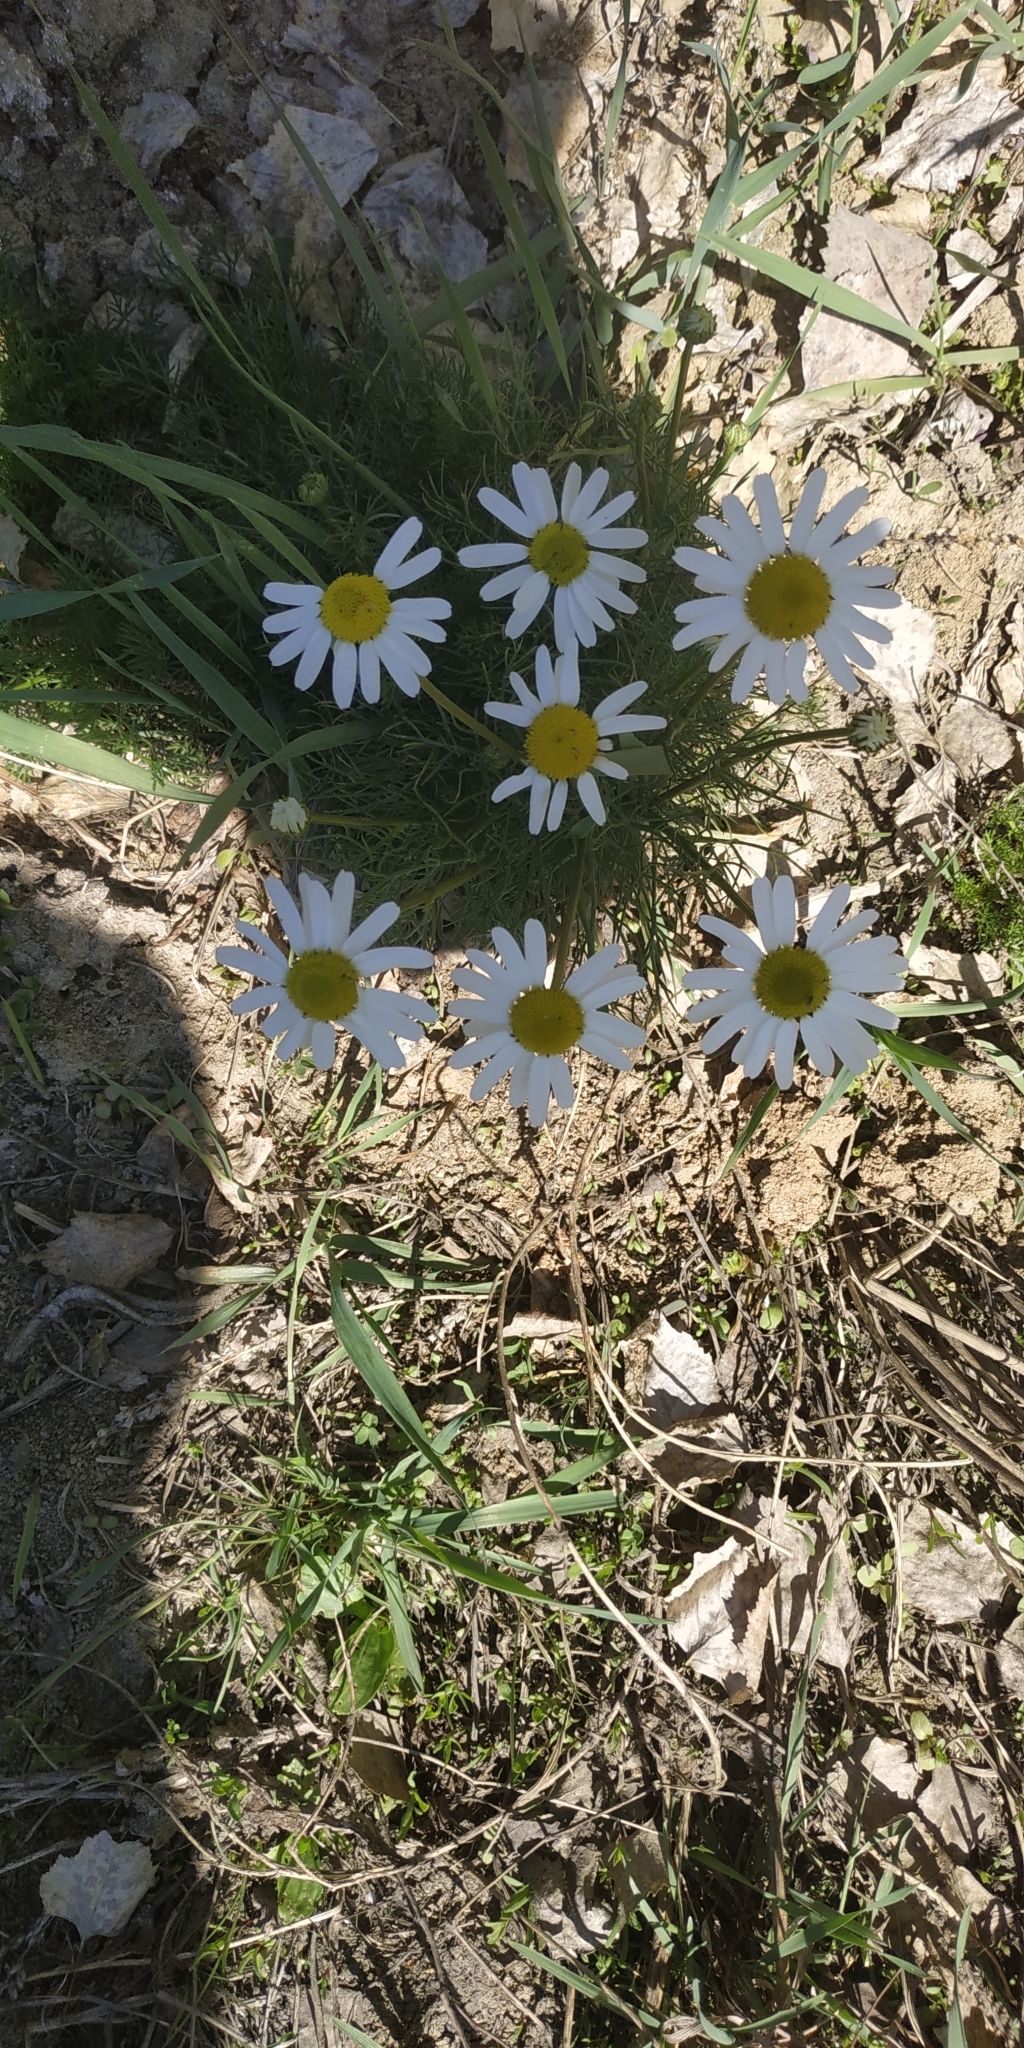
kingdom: Plantae
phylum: Tracheophyta
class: Magnoliopsida
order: Asterales
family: Asteraceae
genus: Tripleurospermum
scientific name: Tripleurospermum inodorum
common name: Scentless mayweed
